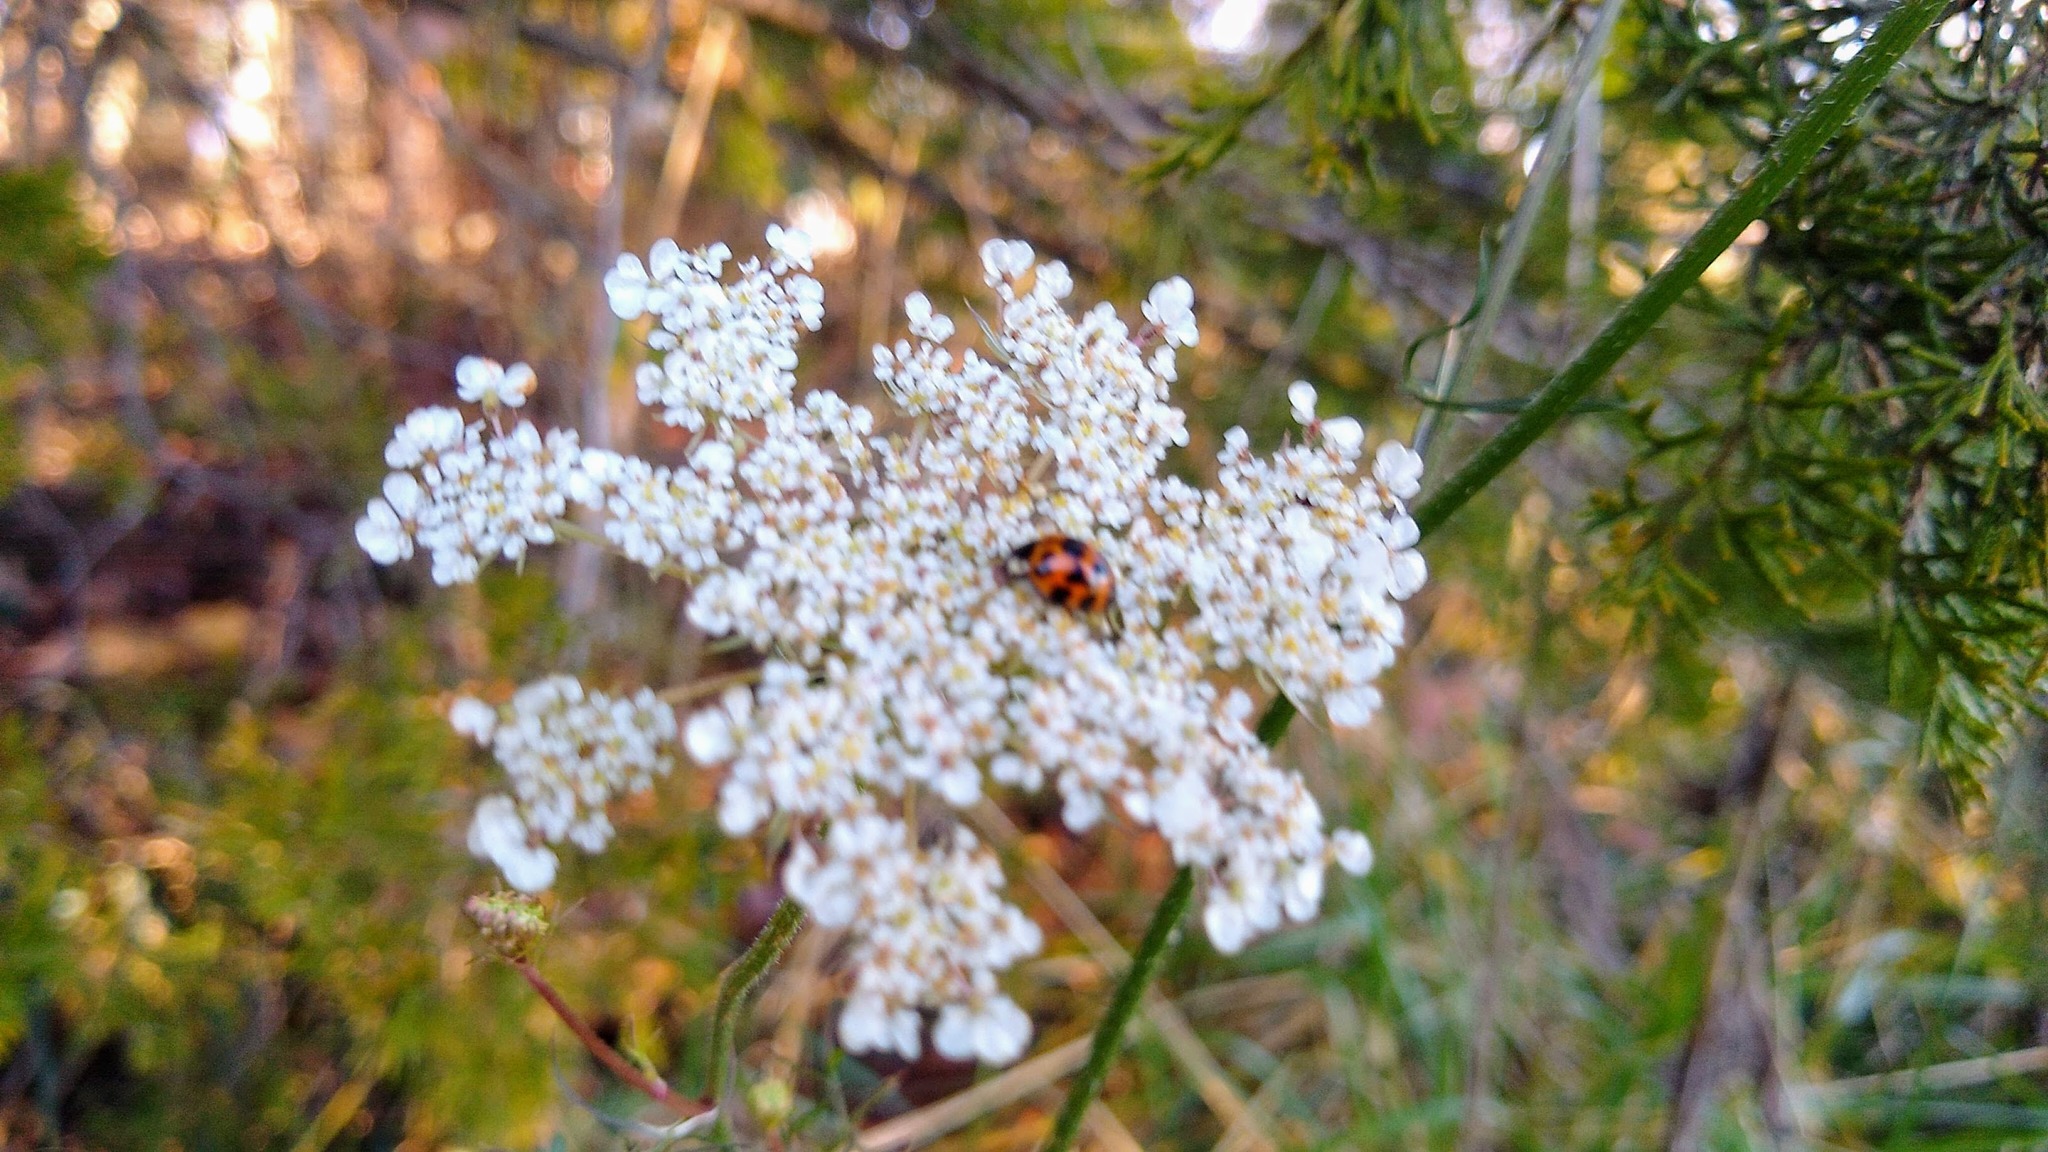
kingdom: Plantae
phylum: Tracheophyta
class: Magnoliopsida
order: Apiales
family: Apiaceae
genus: Daucus
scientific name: Daucus carota
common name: Wild carrot
